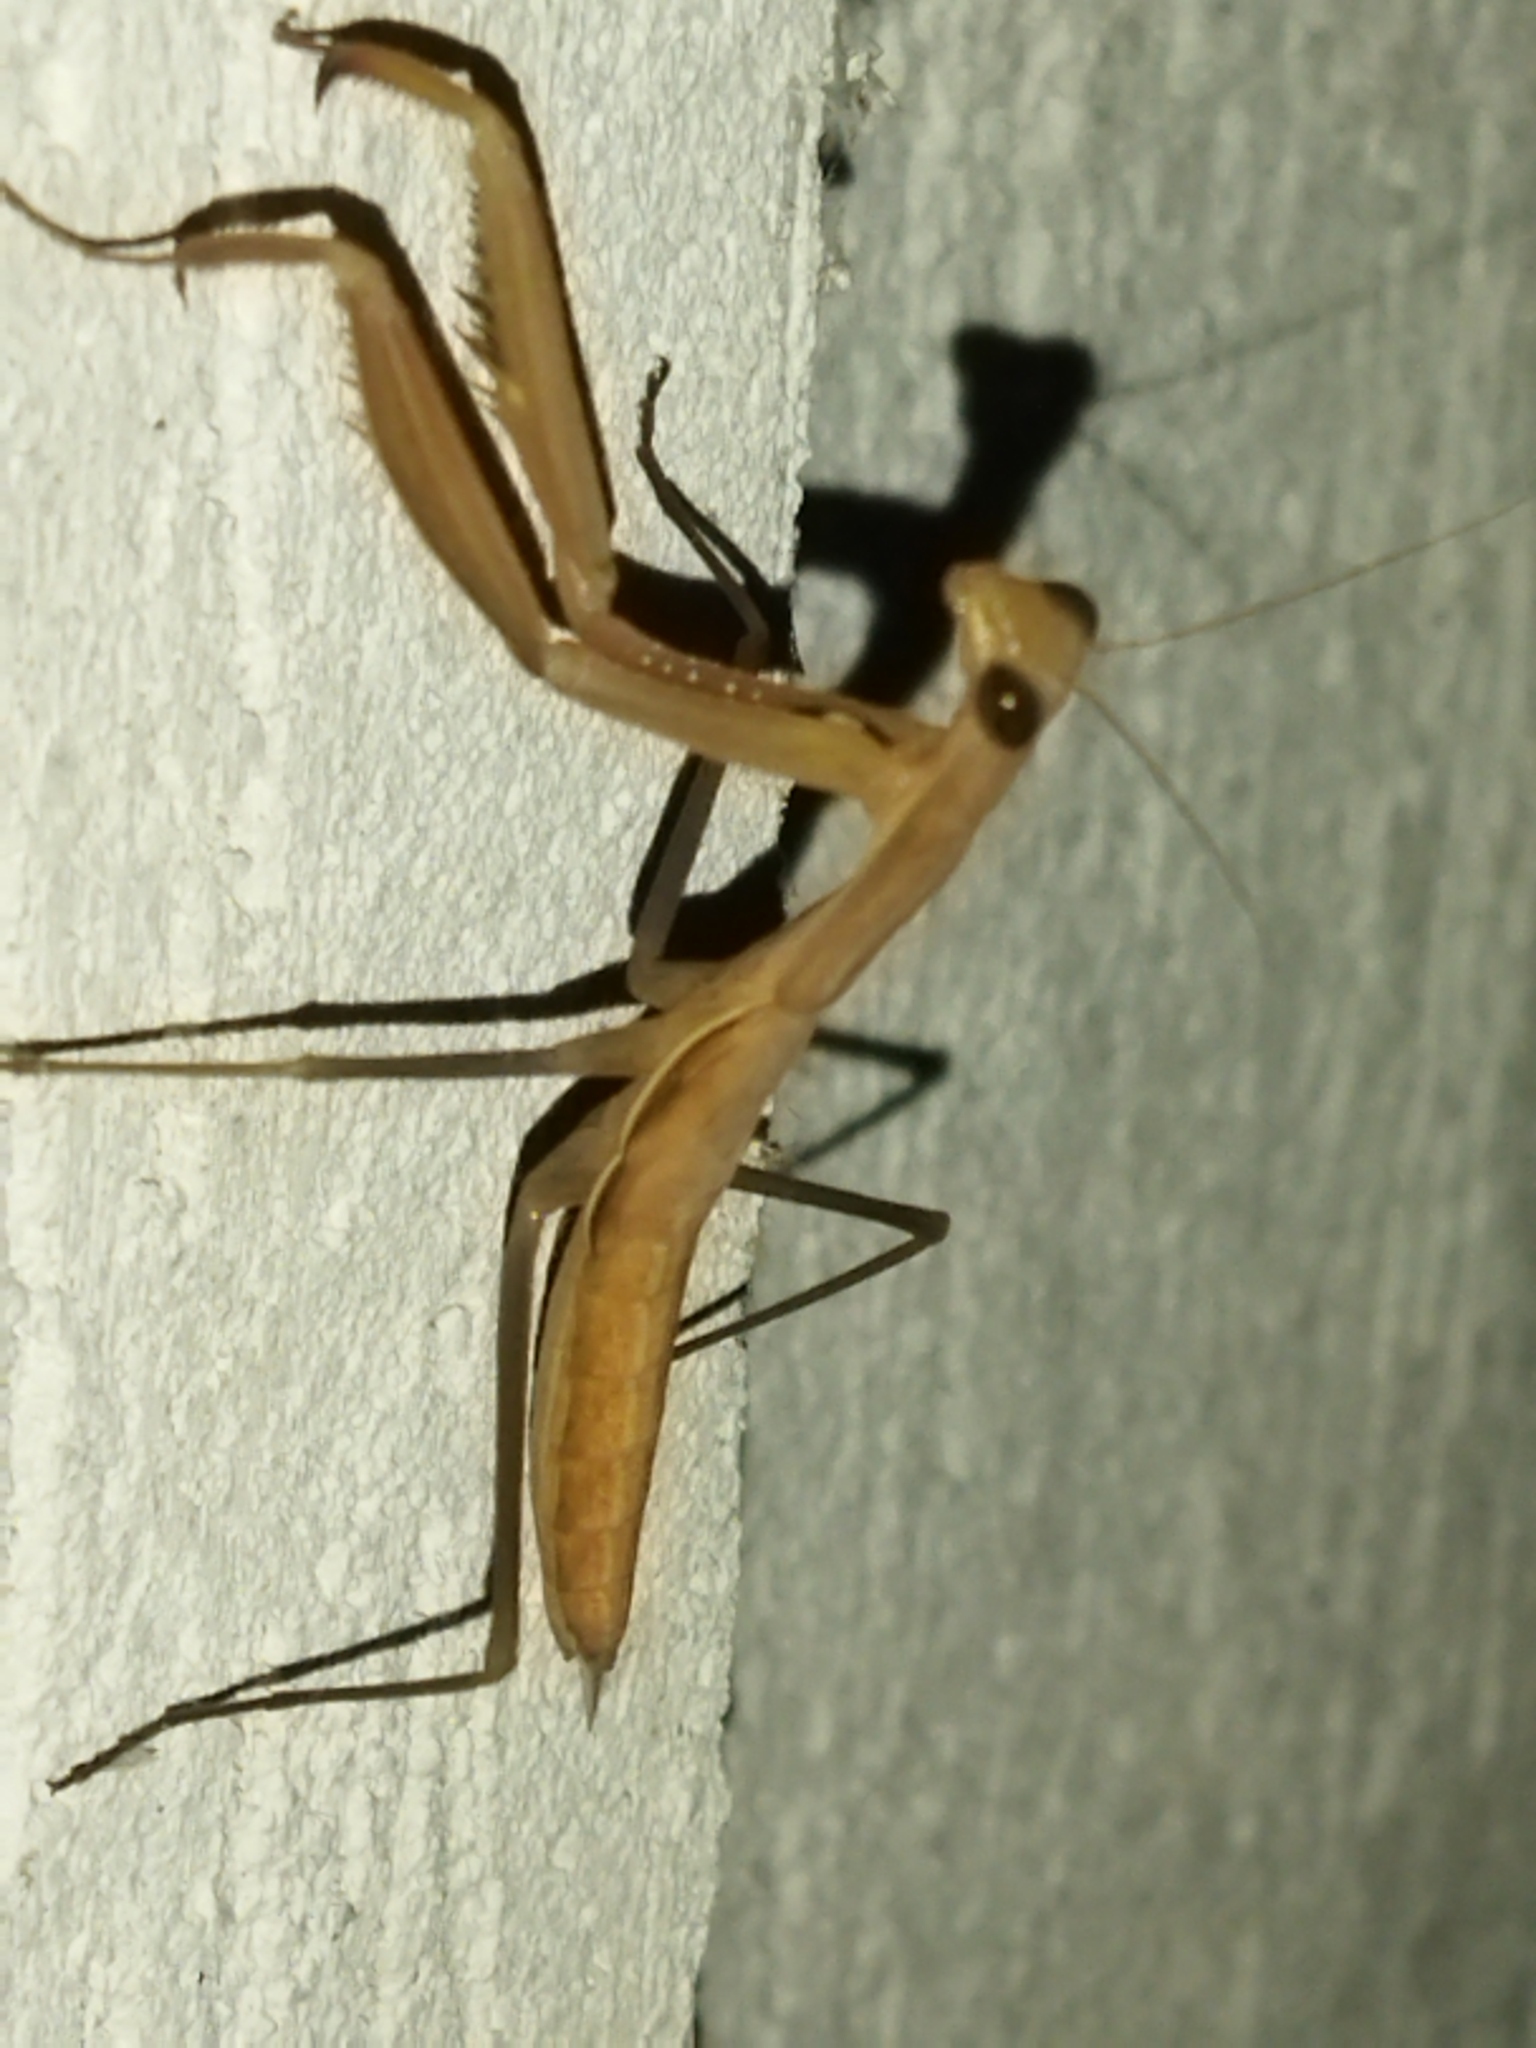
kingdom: Animalia
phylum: Arthropoda
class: Insecta
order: Mantodea
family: Mantidae
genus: Mantis
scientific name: Mantis religiosa
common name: Praying mantis
